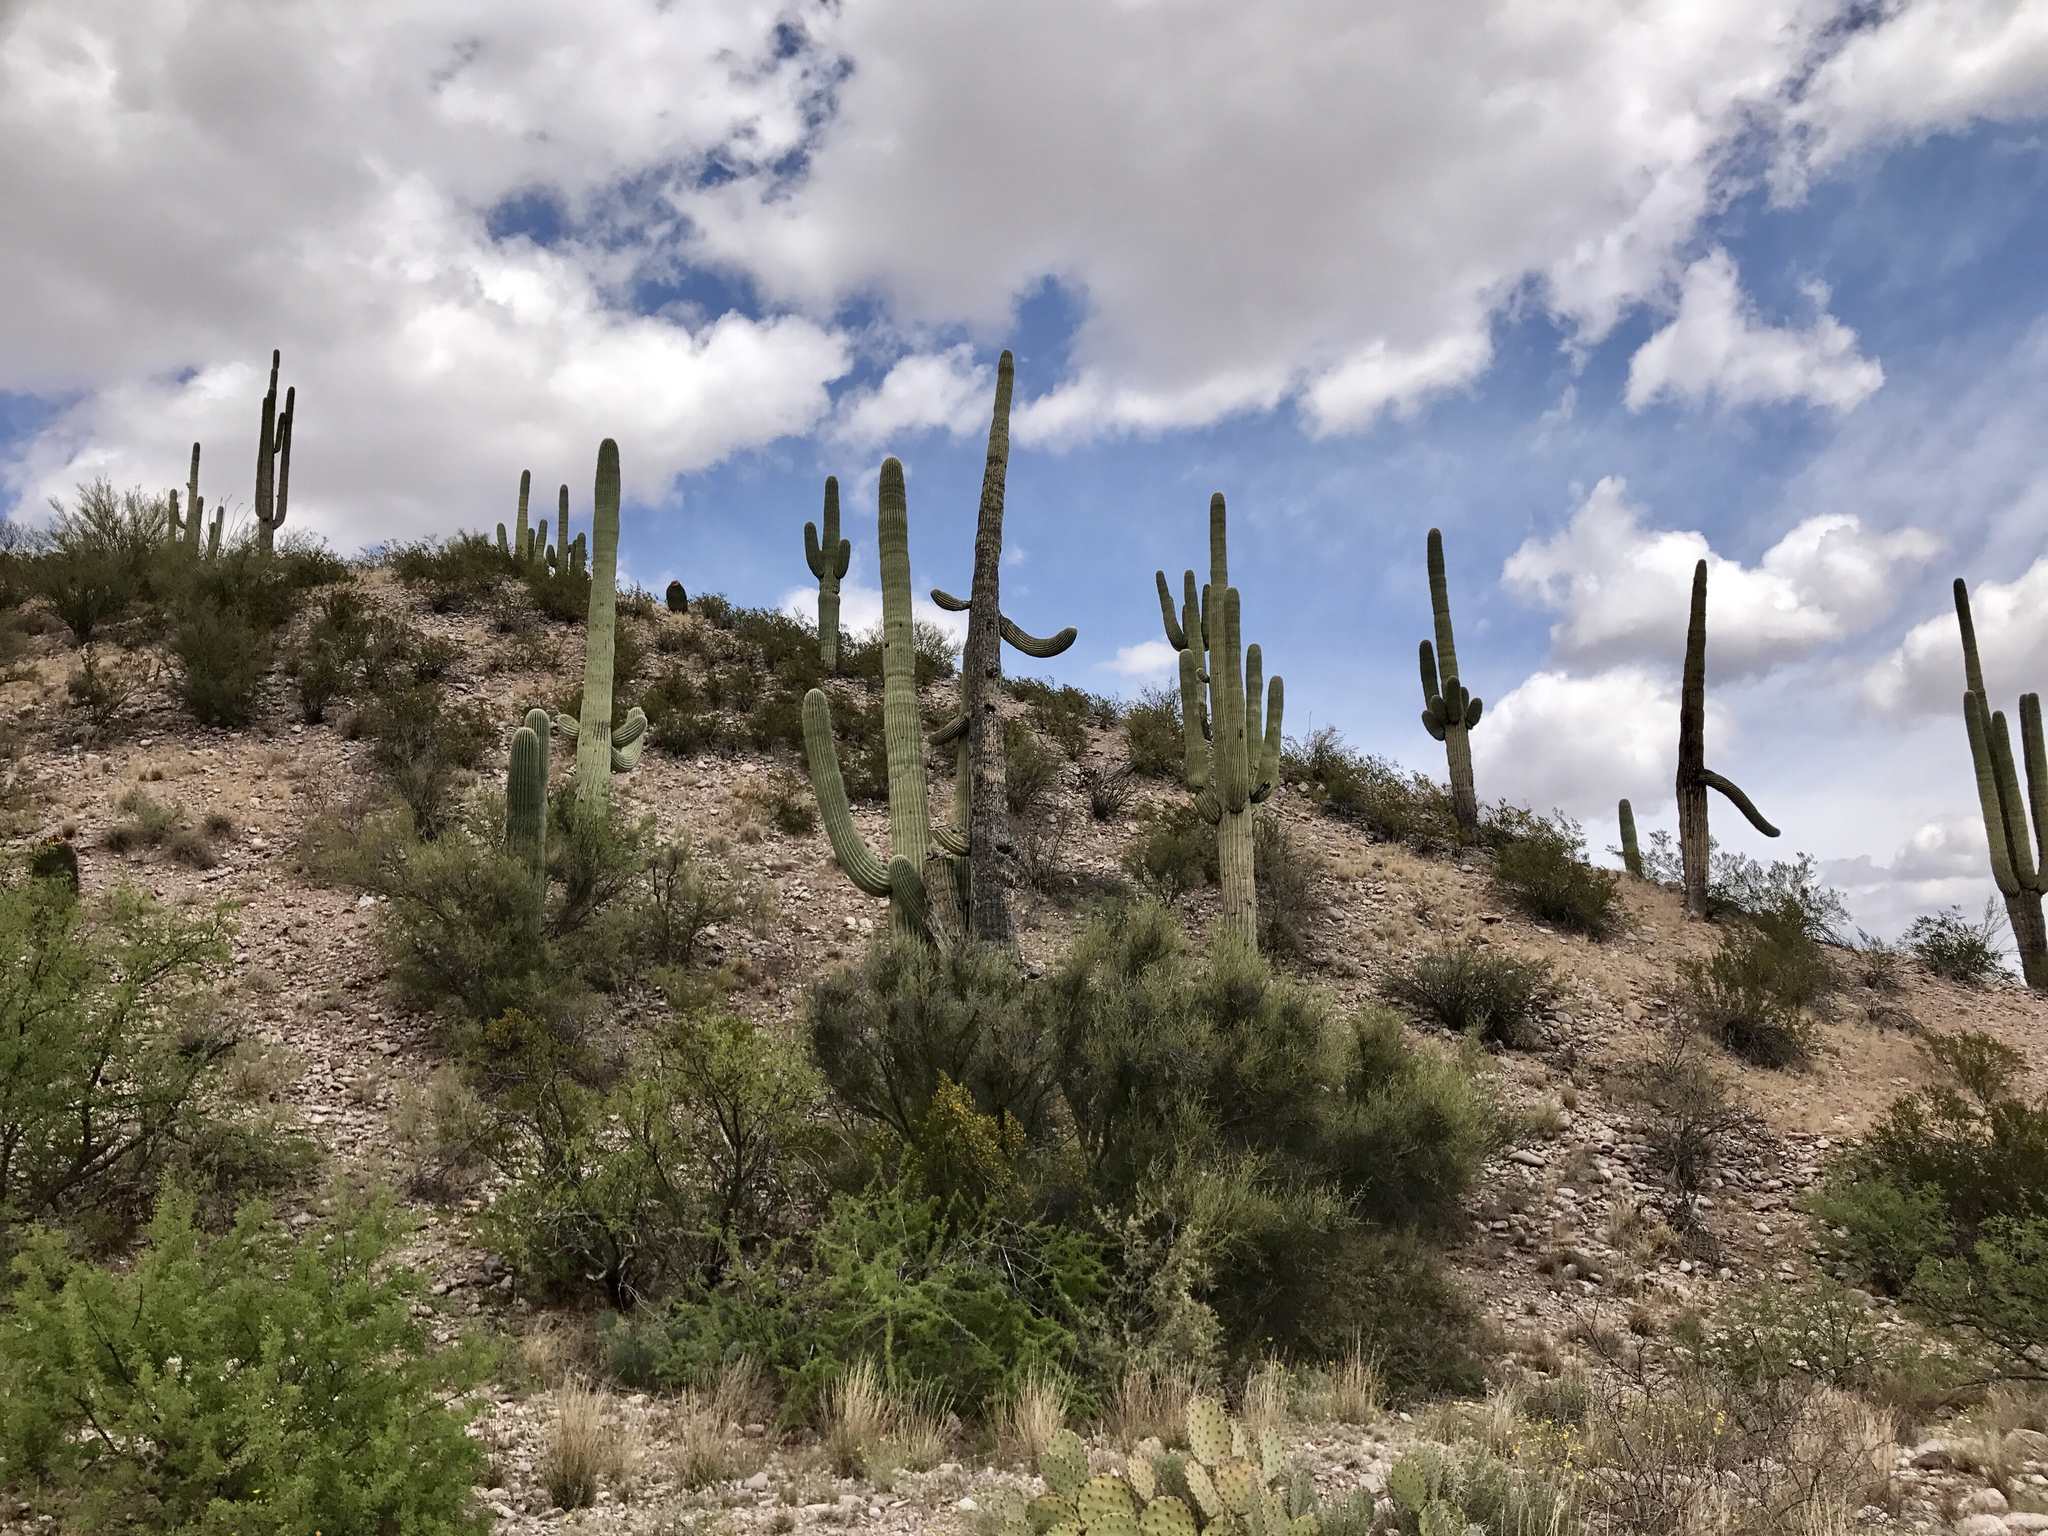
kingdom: Plantae
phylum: Tracheophyta
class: Magnoliopsida
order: Caryophyllales
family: Cactaceae
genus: Carnegiea
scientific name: Carnegiea gigantea
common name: Saguaro
